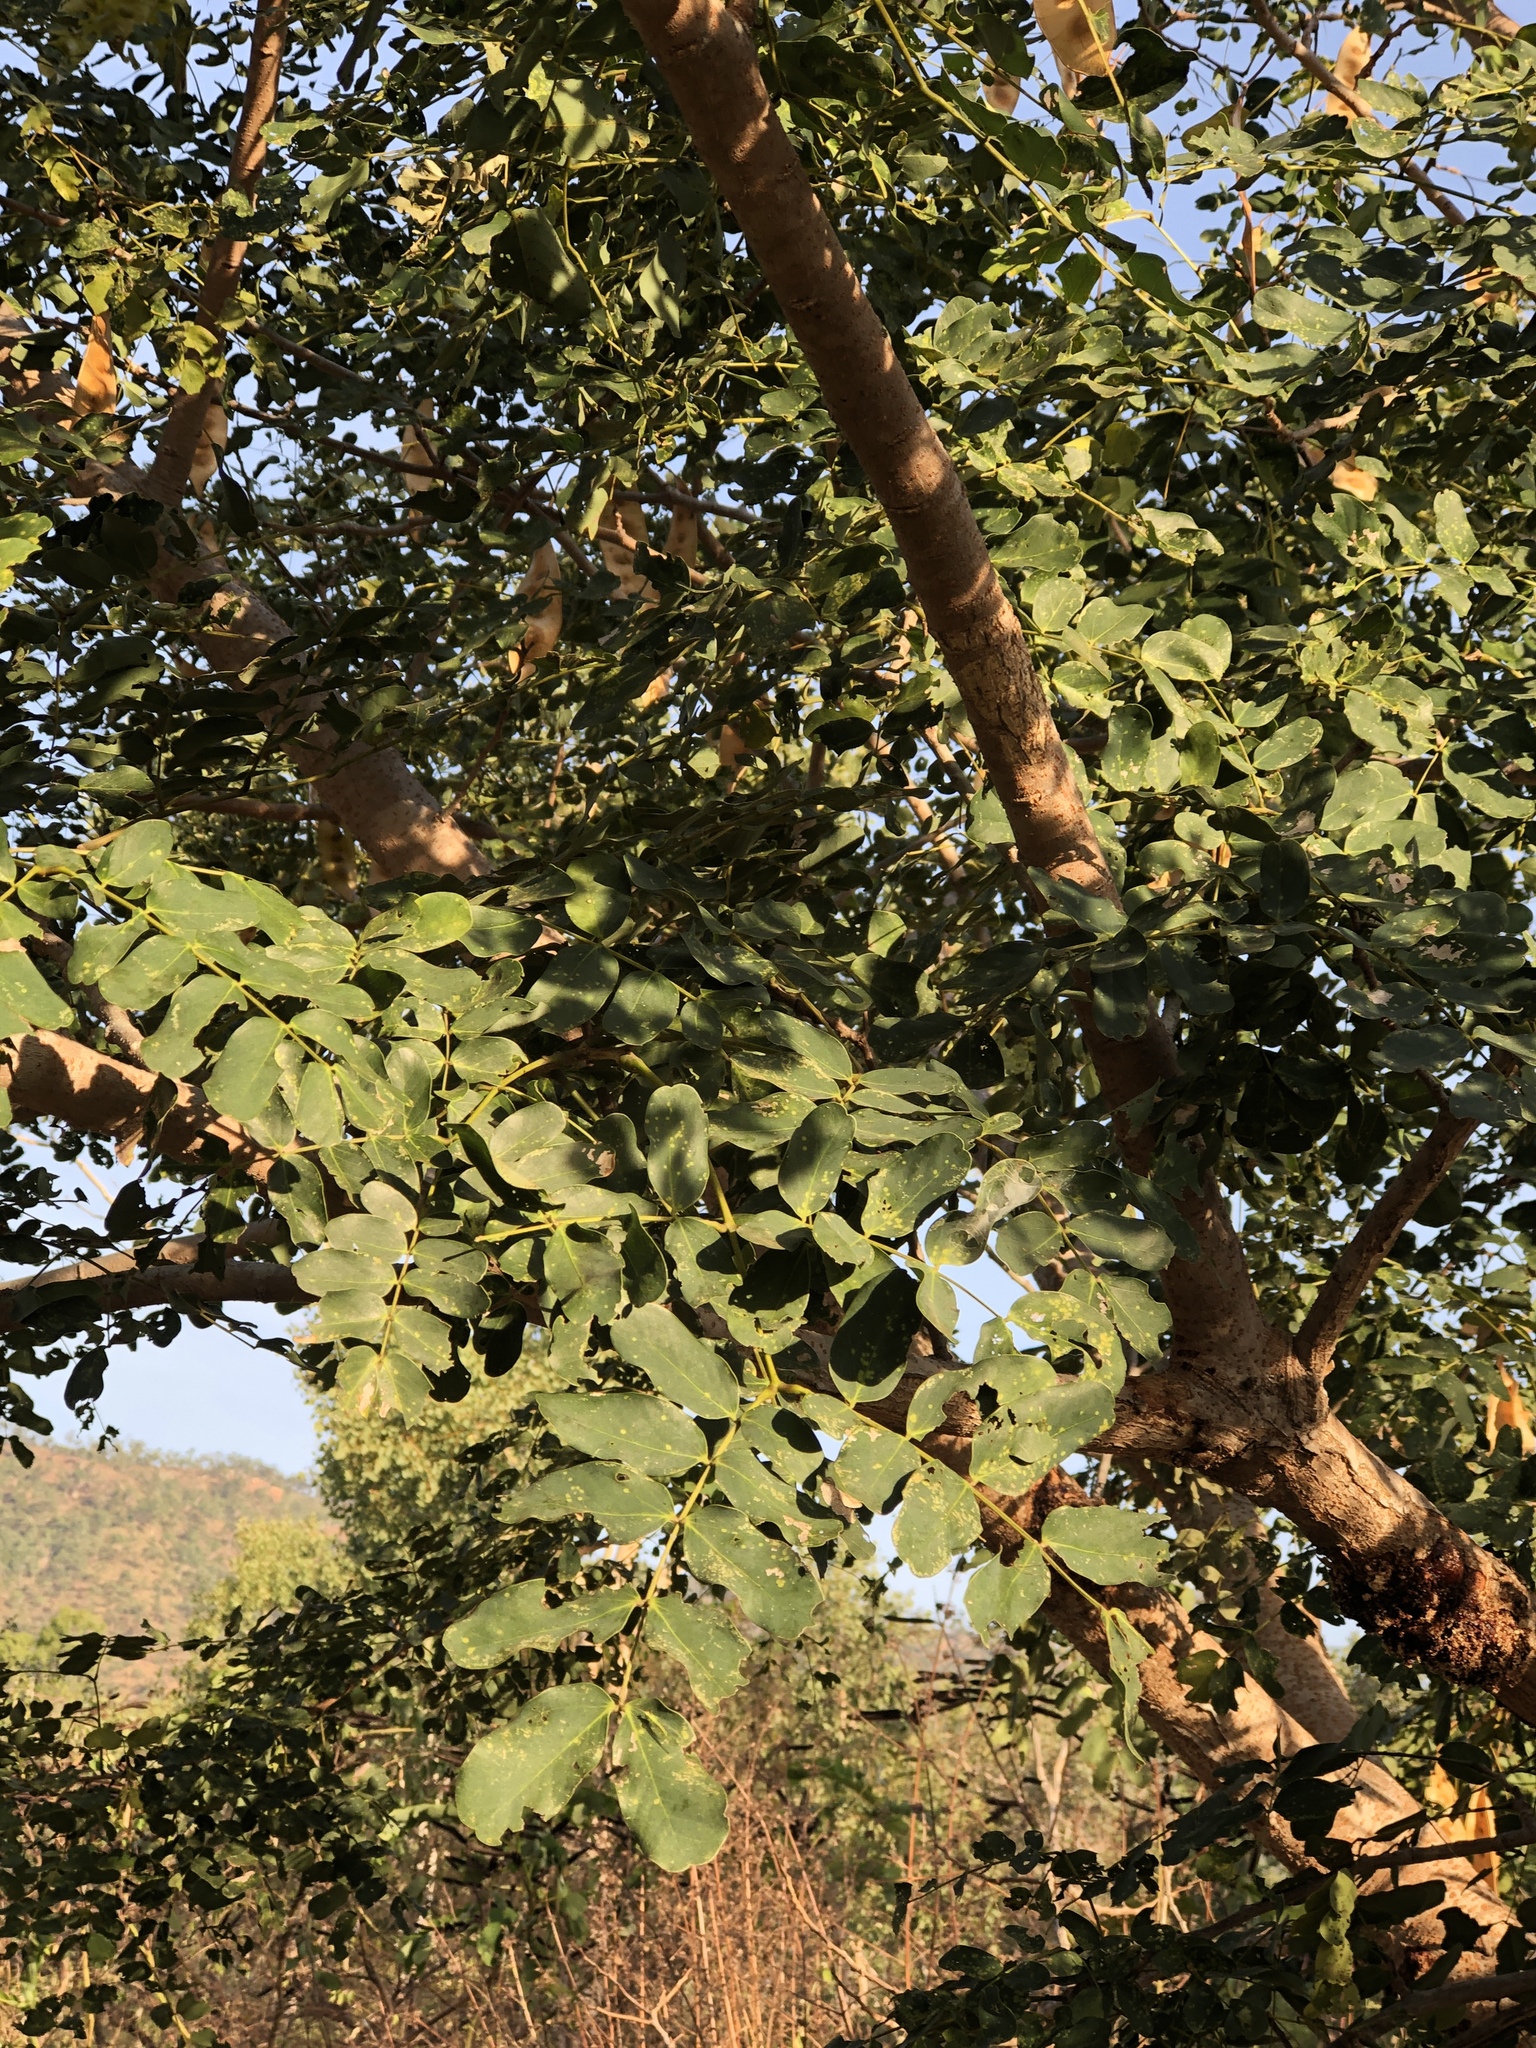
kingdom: Plantae
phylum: Tracheophyta
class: Magnoliopsida
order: Fabales
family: Fabaceae
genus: Albizia
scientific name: Albizia lebbeck
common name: Woman's tongue
